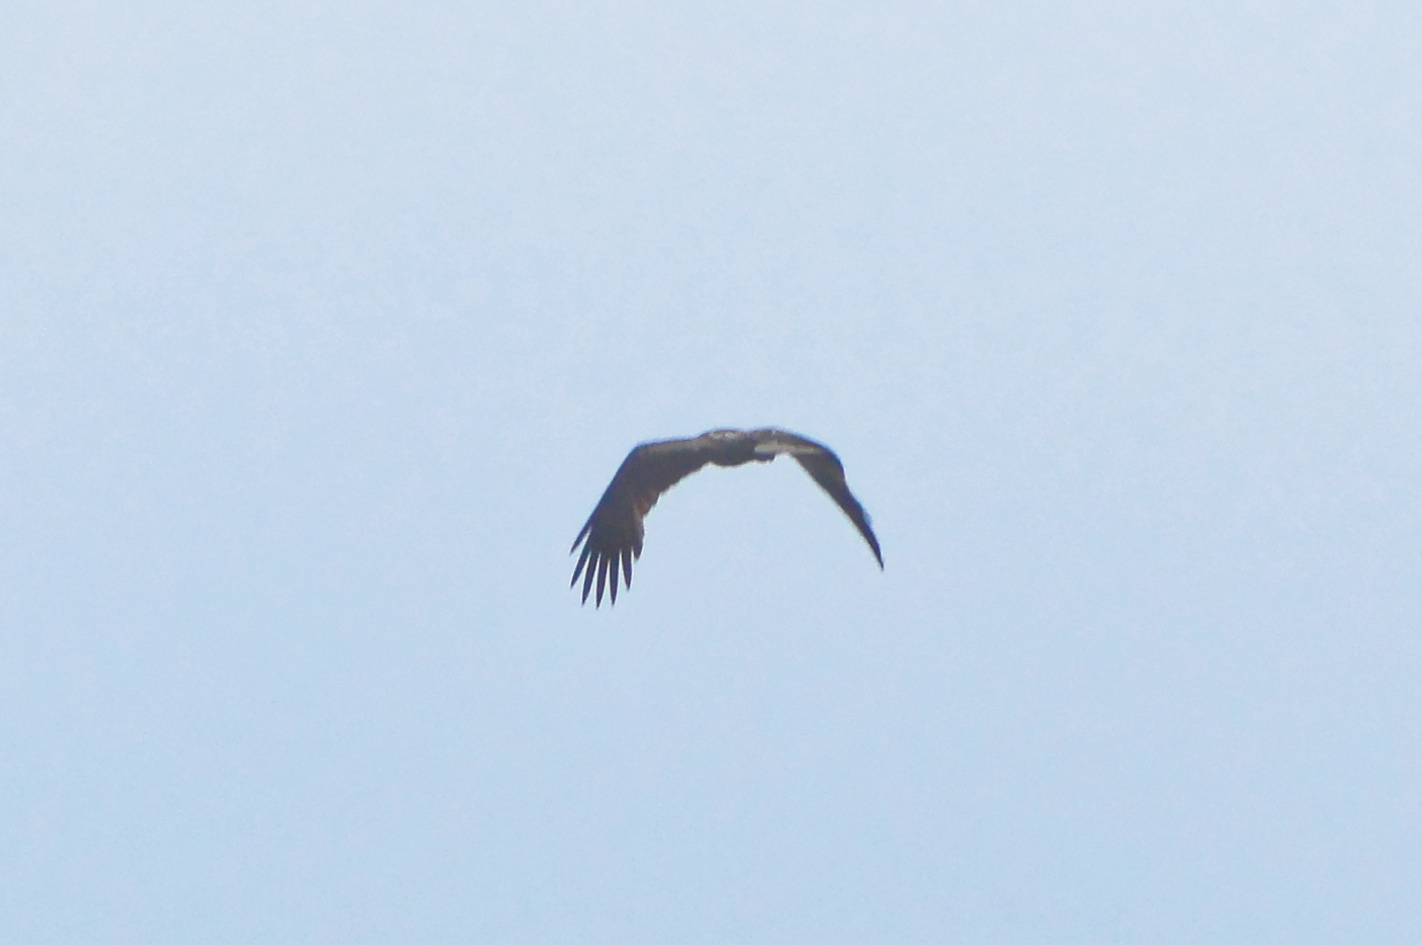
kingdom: Animalia
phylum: Chordata
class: Aves
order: Accipitriformes
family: Accipitridae
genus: Haliastur
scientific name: Haliastur sphenurus
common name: Whistling kite
